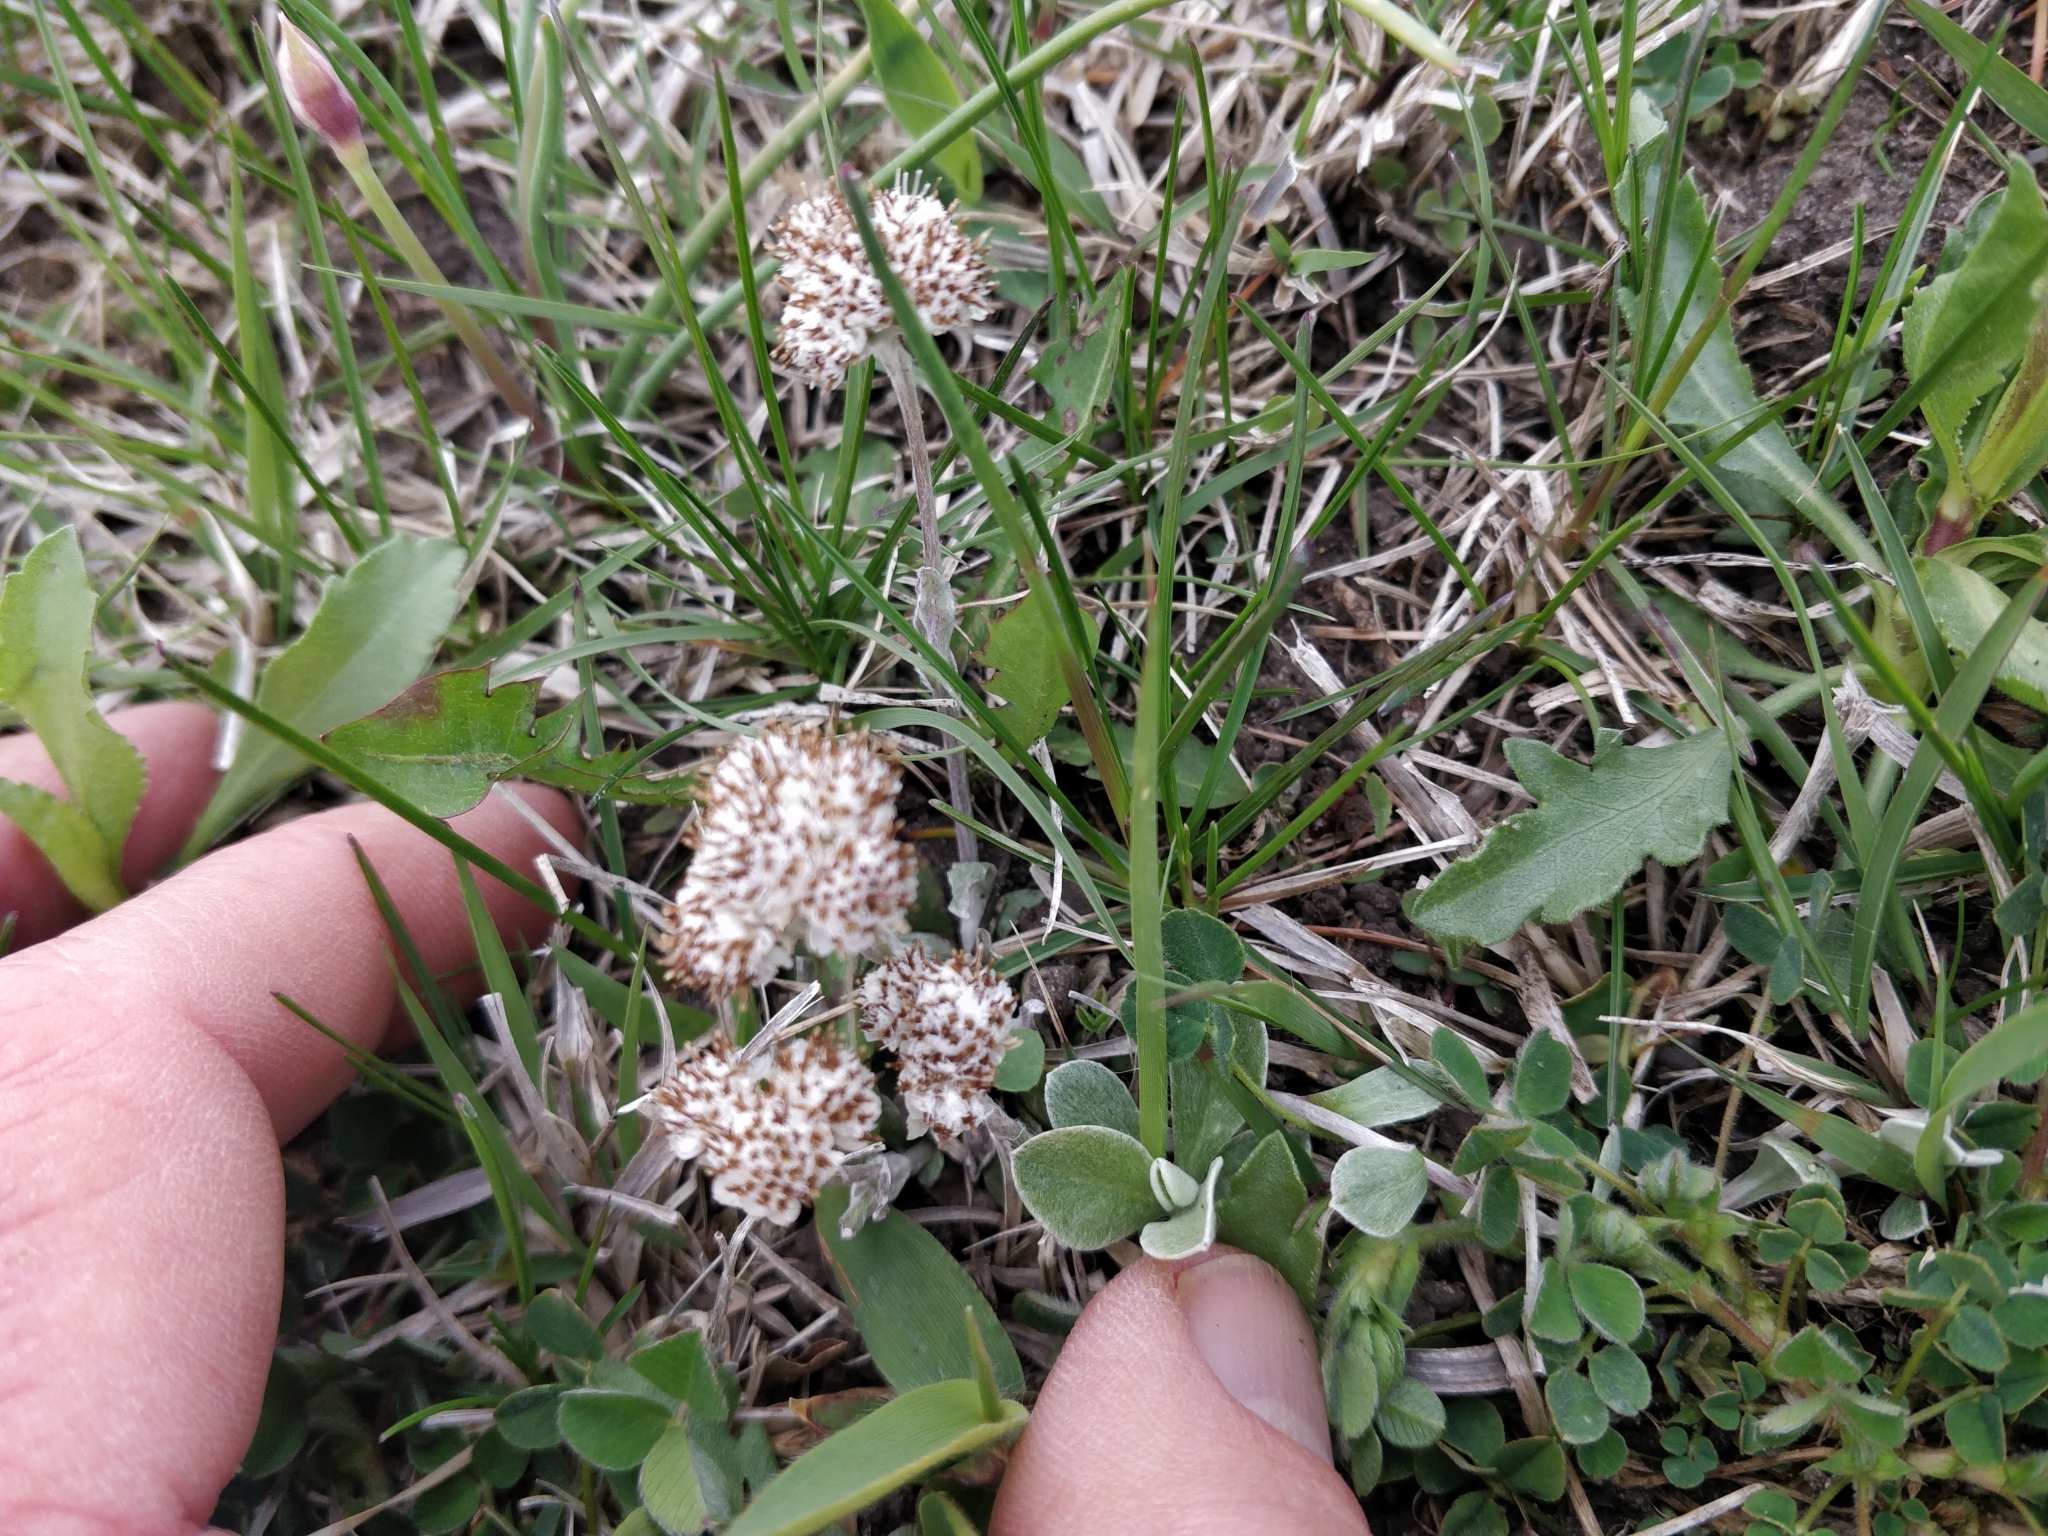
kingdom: Plantae
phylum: Tracheophyta
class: Magnoliopsida
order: Asterales
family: Asteraceae
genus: Antennaria
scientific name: Antennaria neglecta
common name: Field pussytoes
